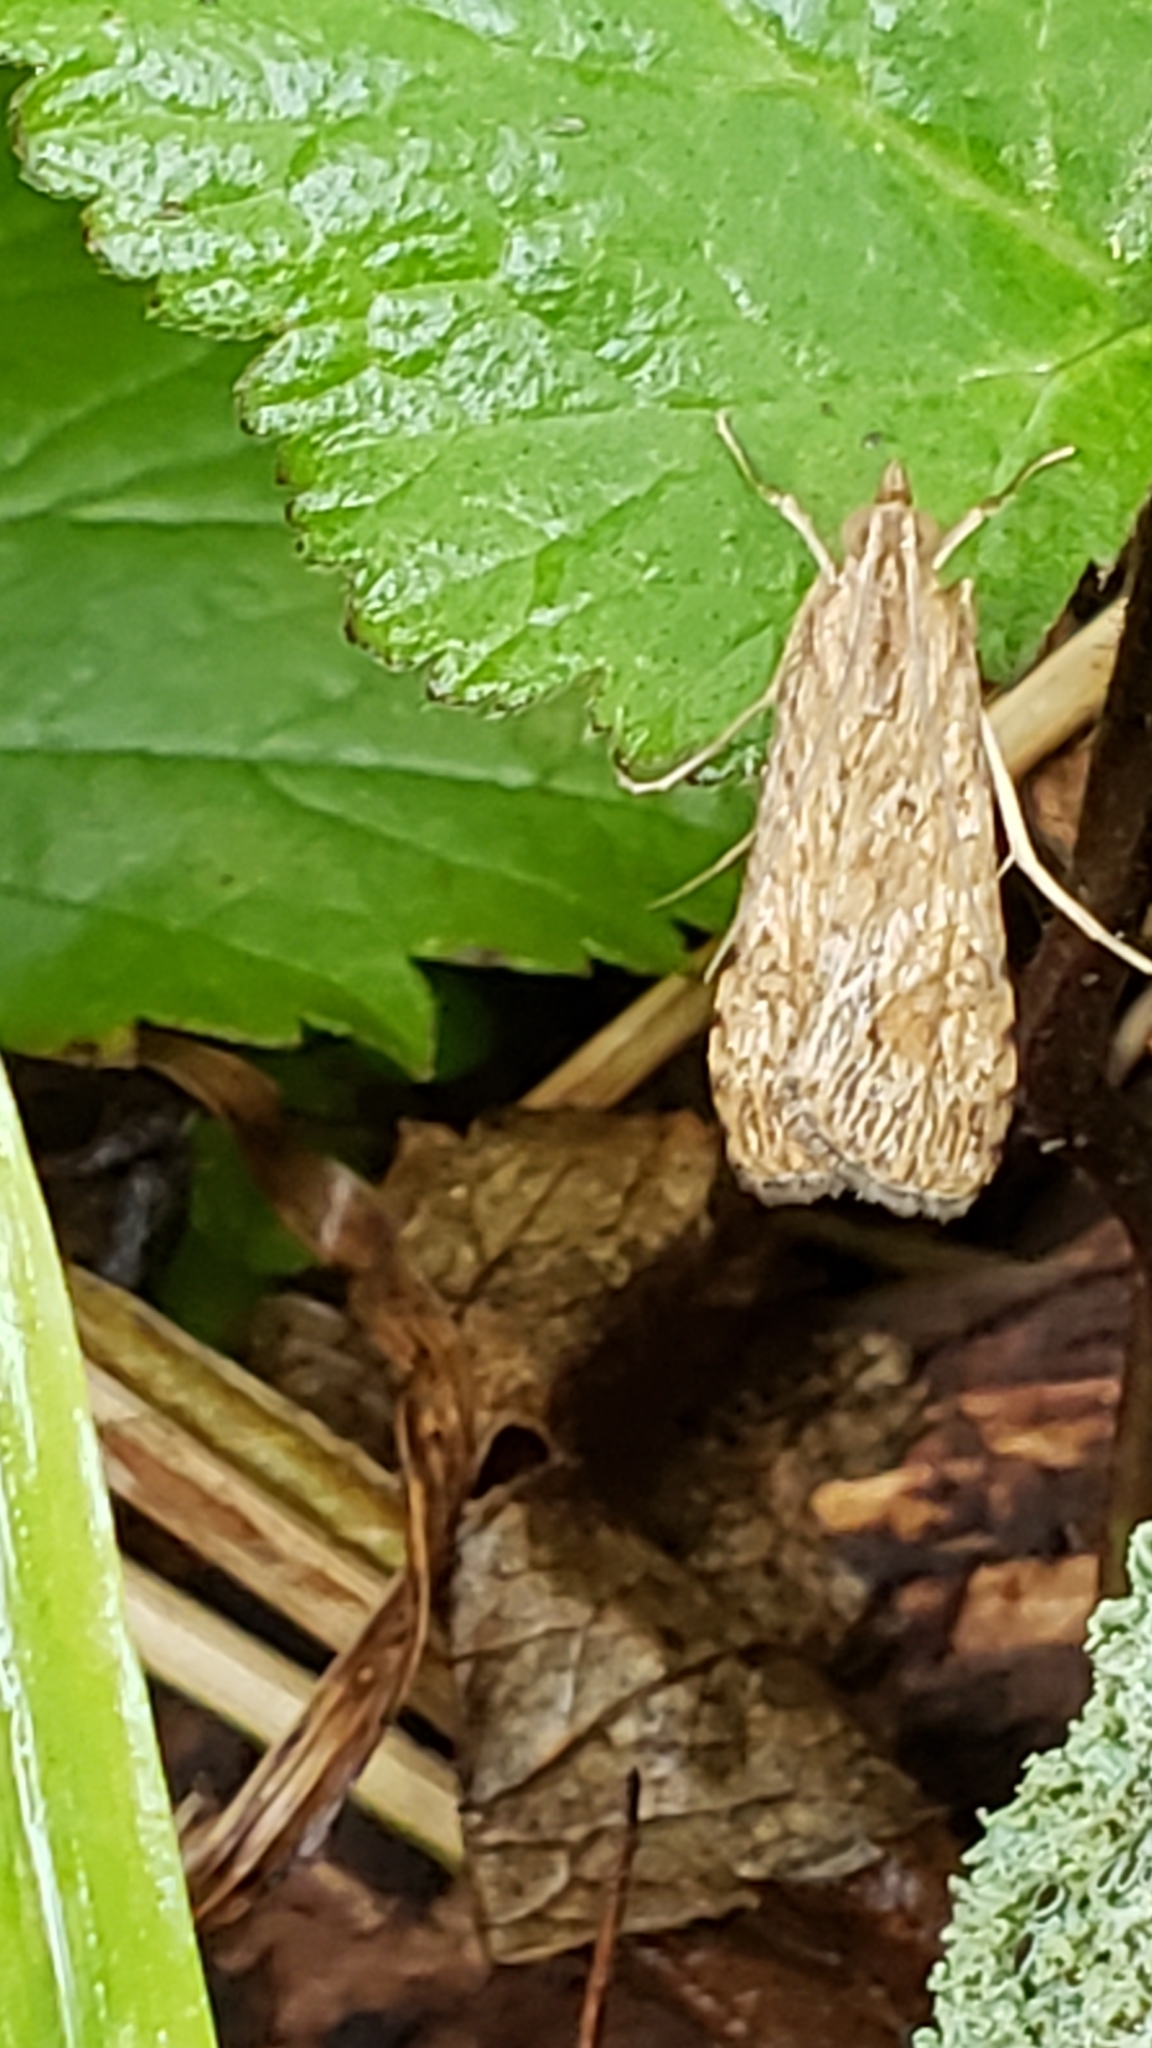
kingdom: Animalia
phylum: Arthropoda
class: Insecta
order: Lepidoptera
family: Crambidae
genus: Nomophila
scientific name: Nomophila nearctica
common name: American rush veneer
